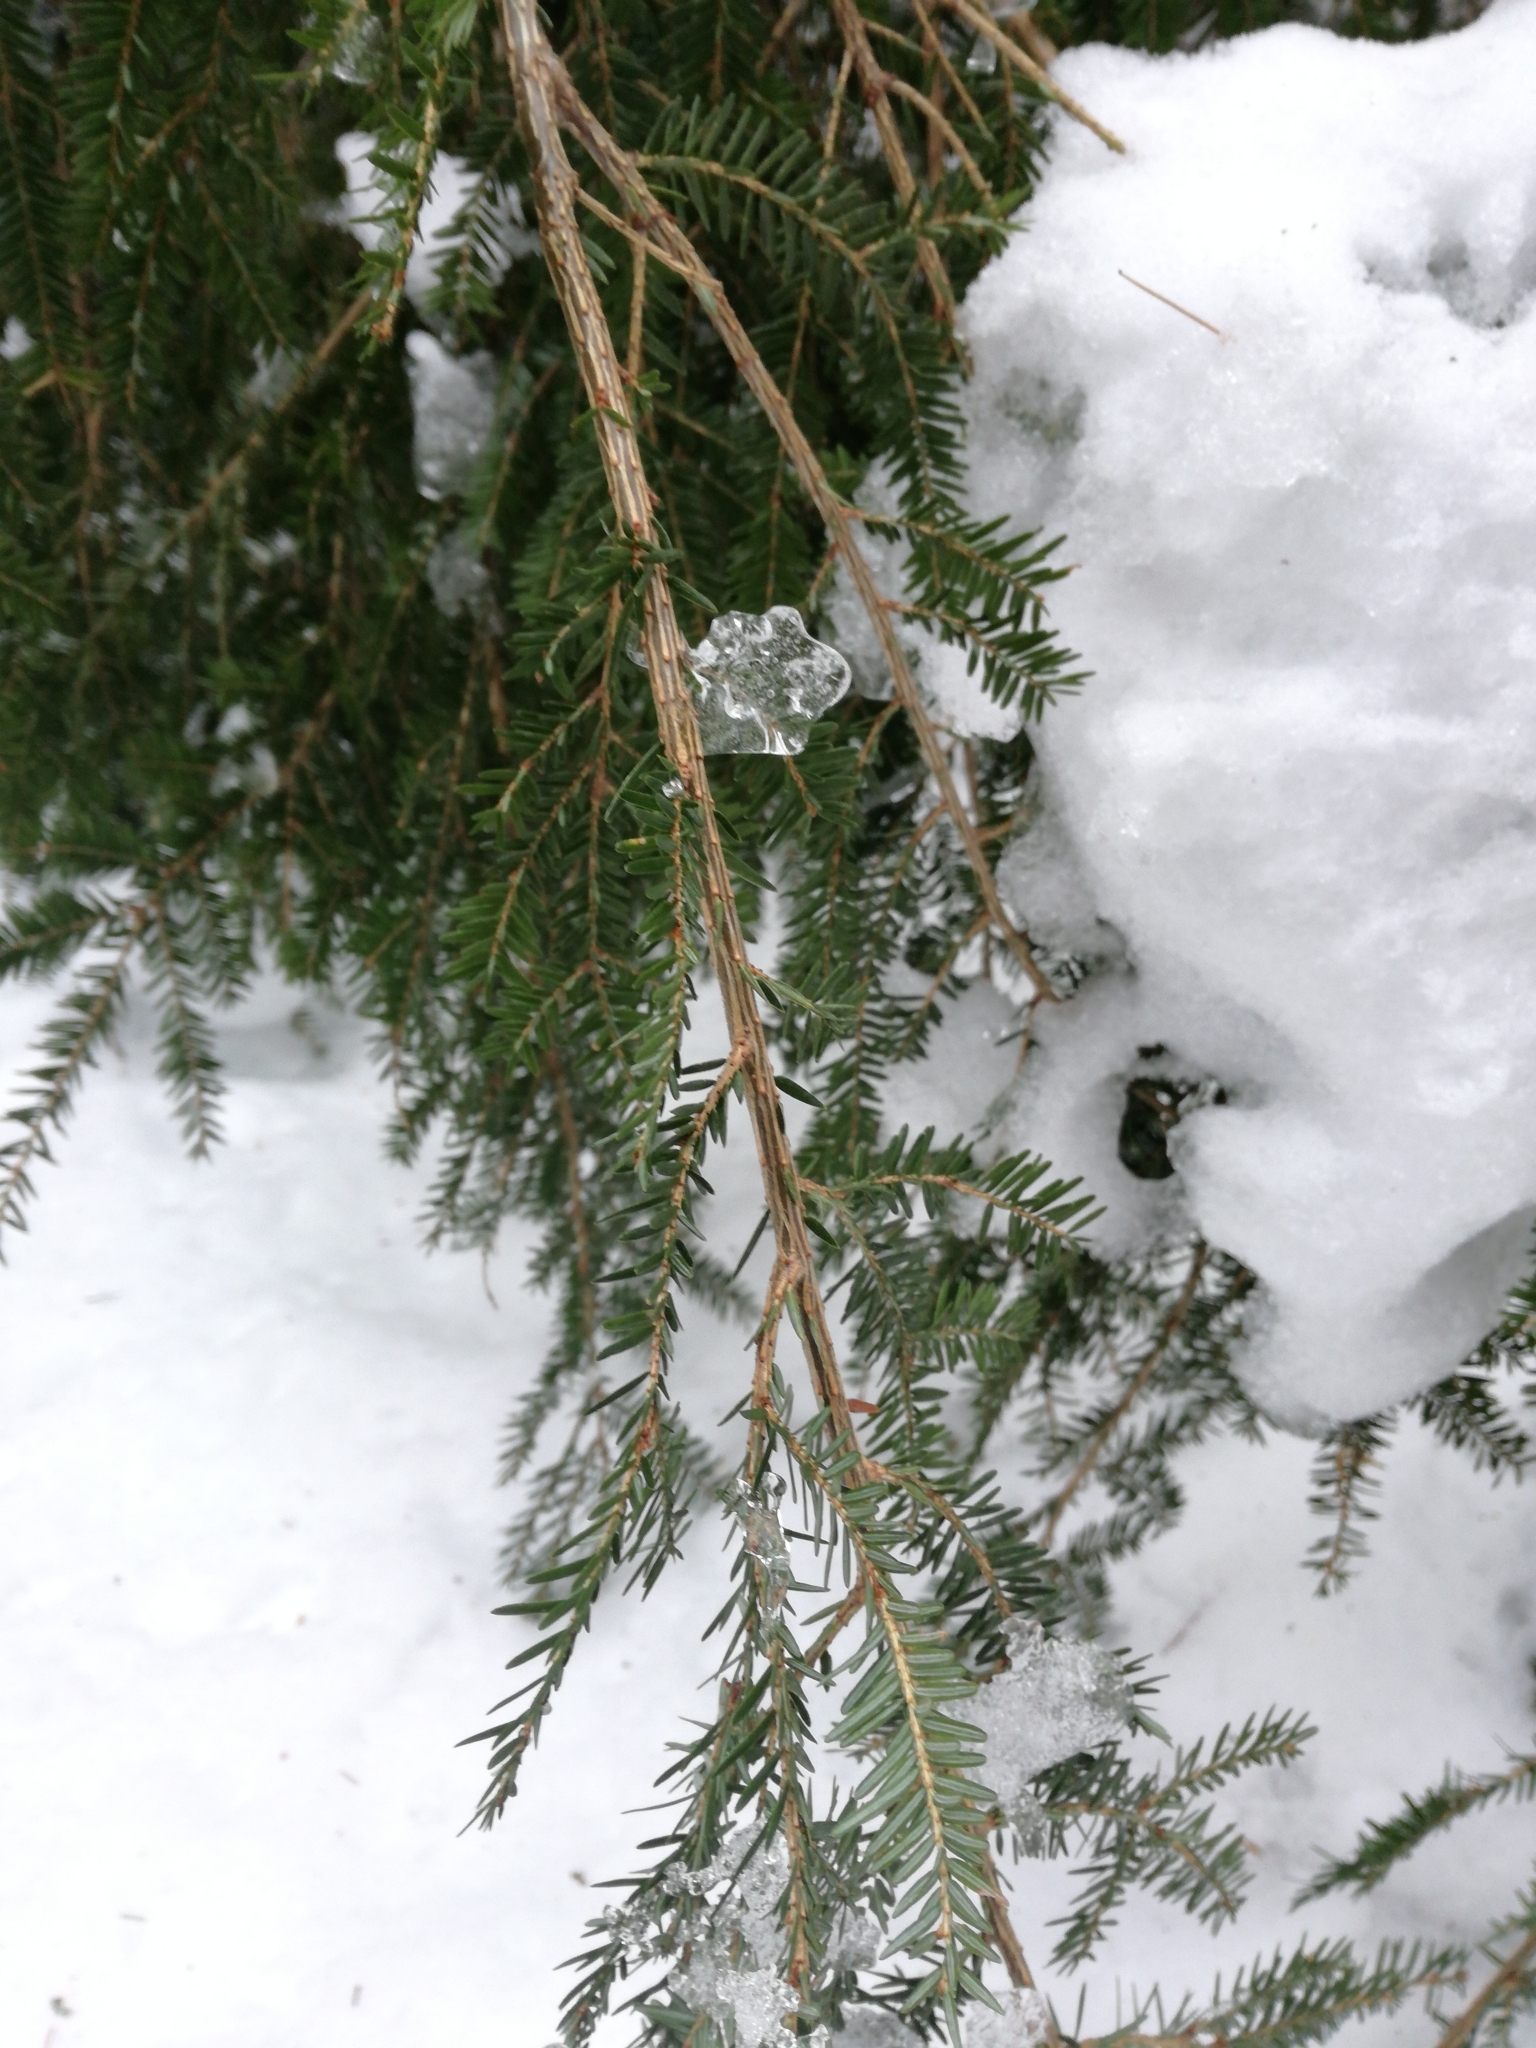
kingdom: Plantae
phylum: Tracheophyta
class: Pinopsida
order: Pinales
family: Pinaceae
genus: Tsuga
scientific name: Tsuga canadensis
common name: Eastern hemlock
